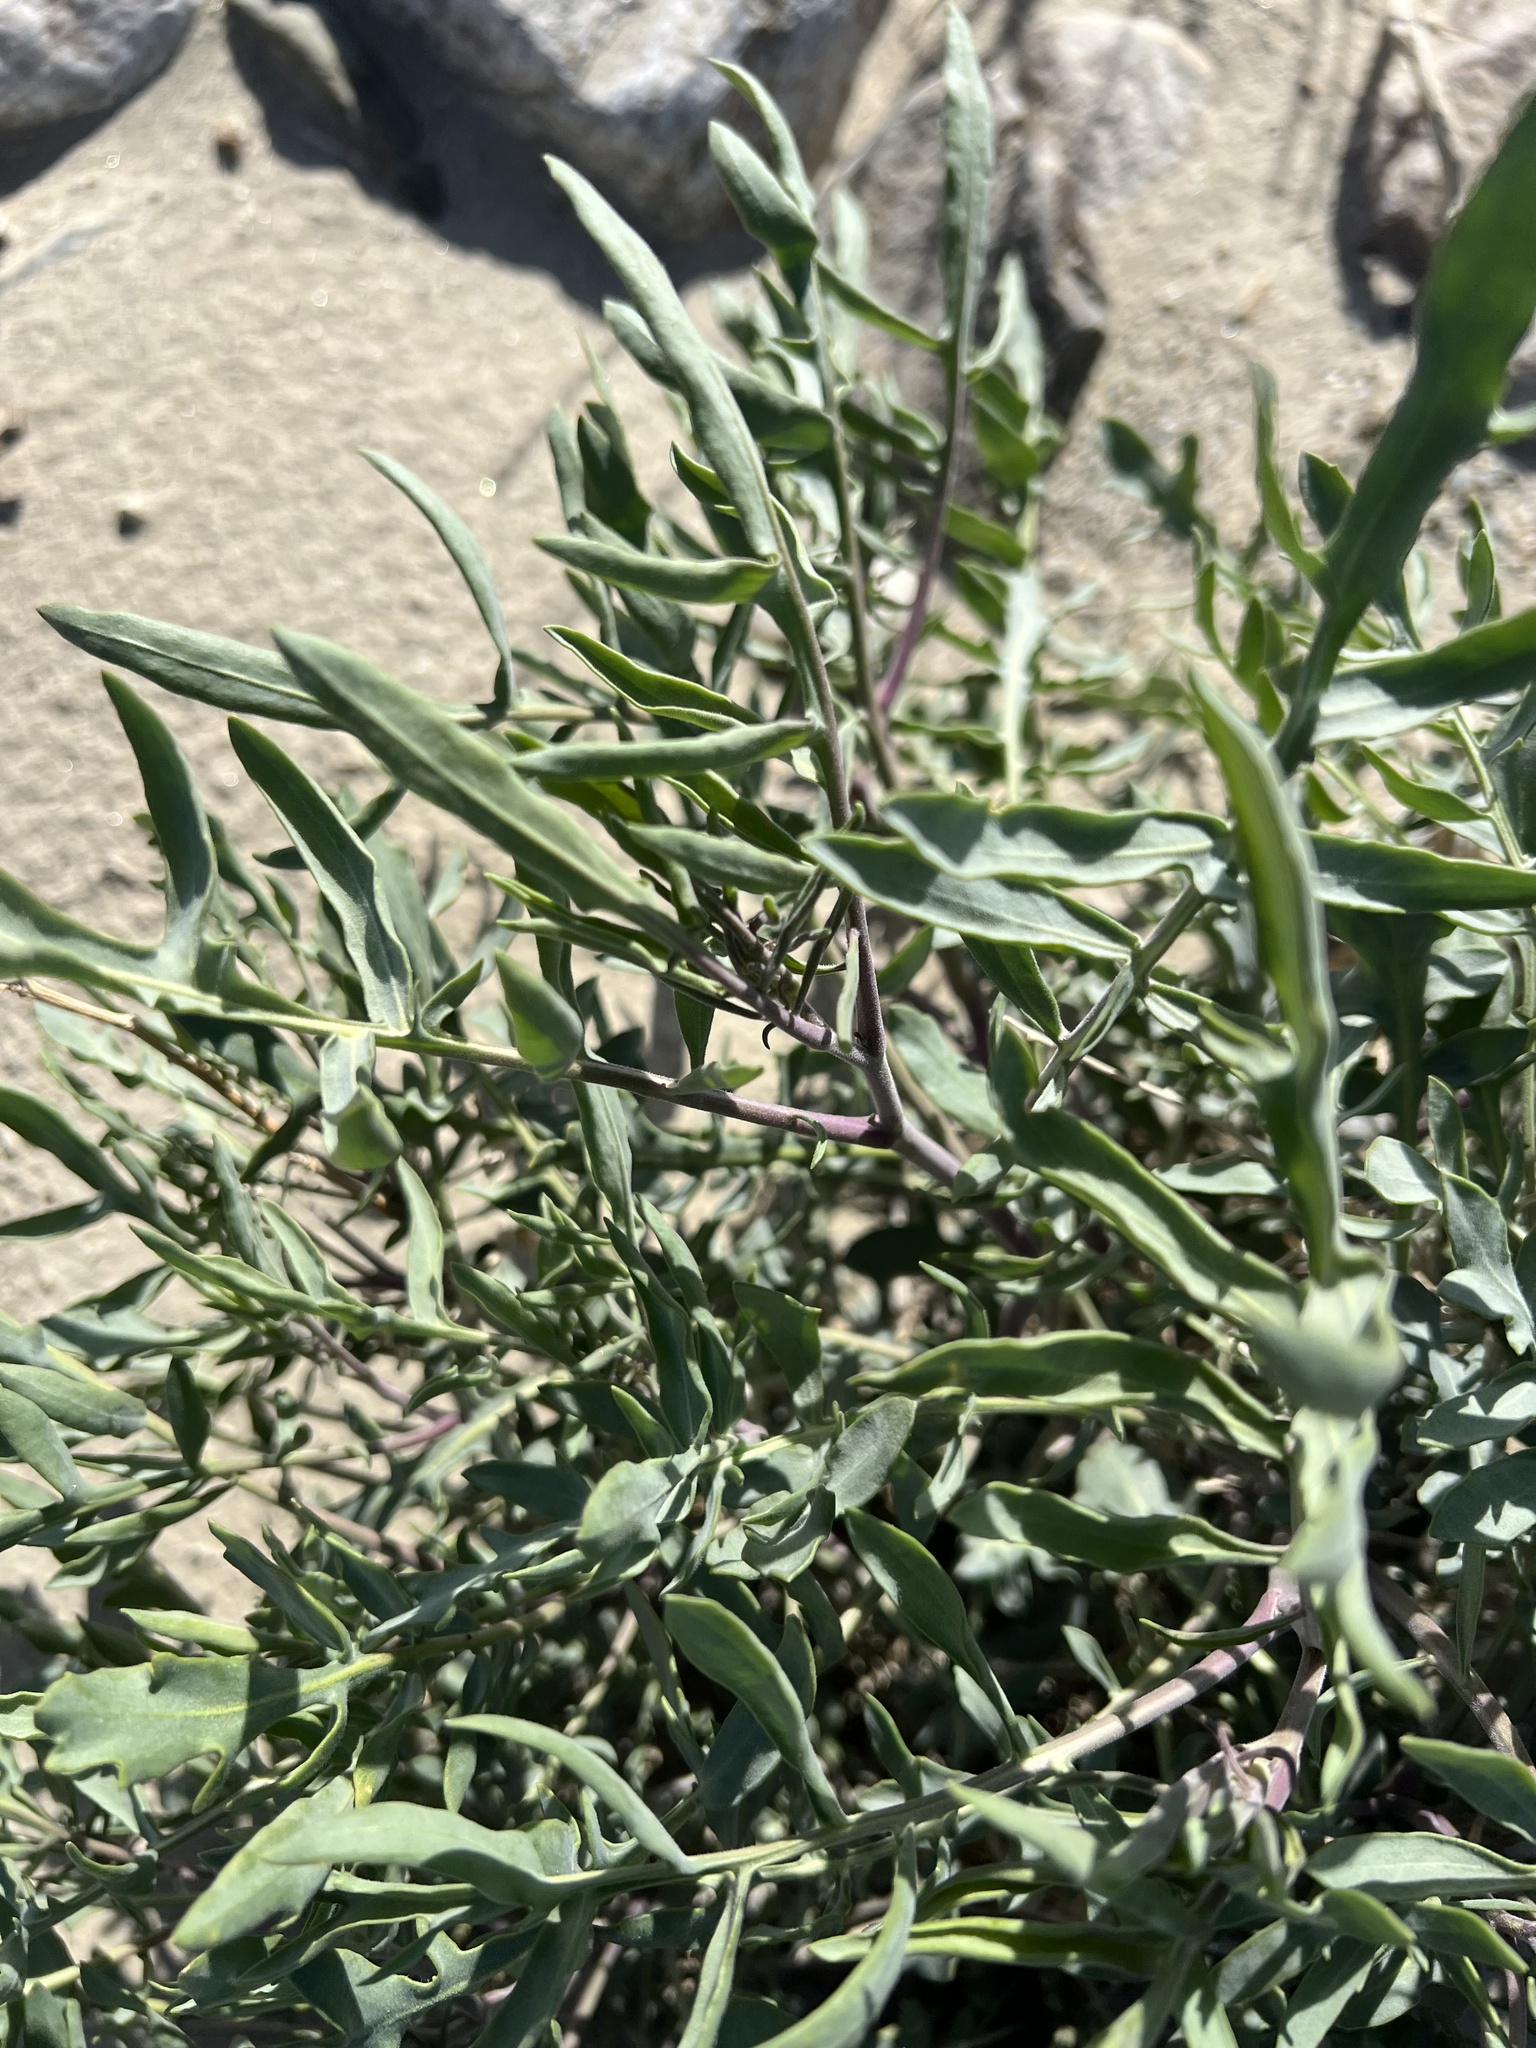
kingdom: Plantae
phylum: Tracheophyta
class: Magnoliopsida
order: Brassicales
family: Brassicaceae
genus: Stanleya
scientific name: Stanleya pinnata
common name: Prince's-plume
